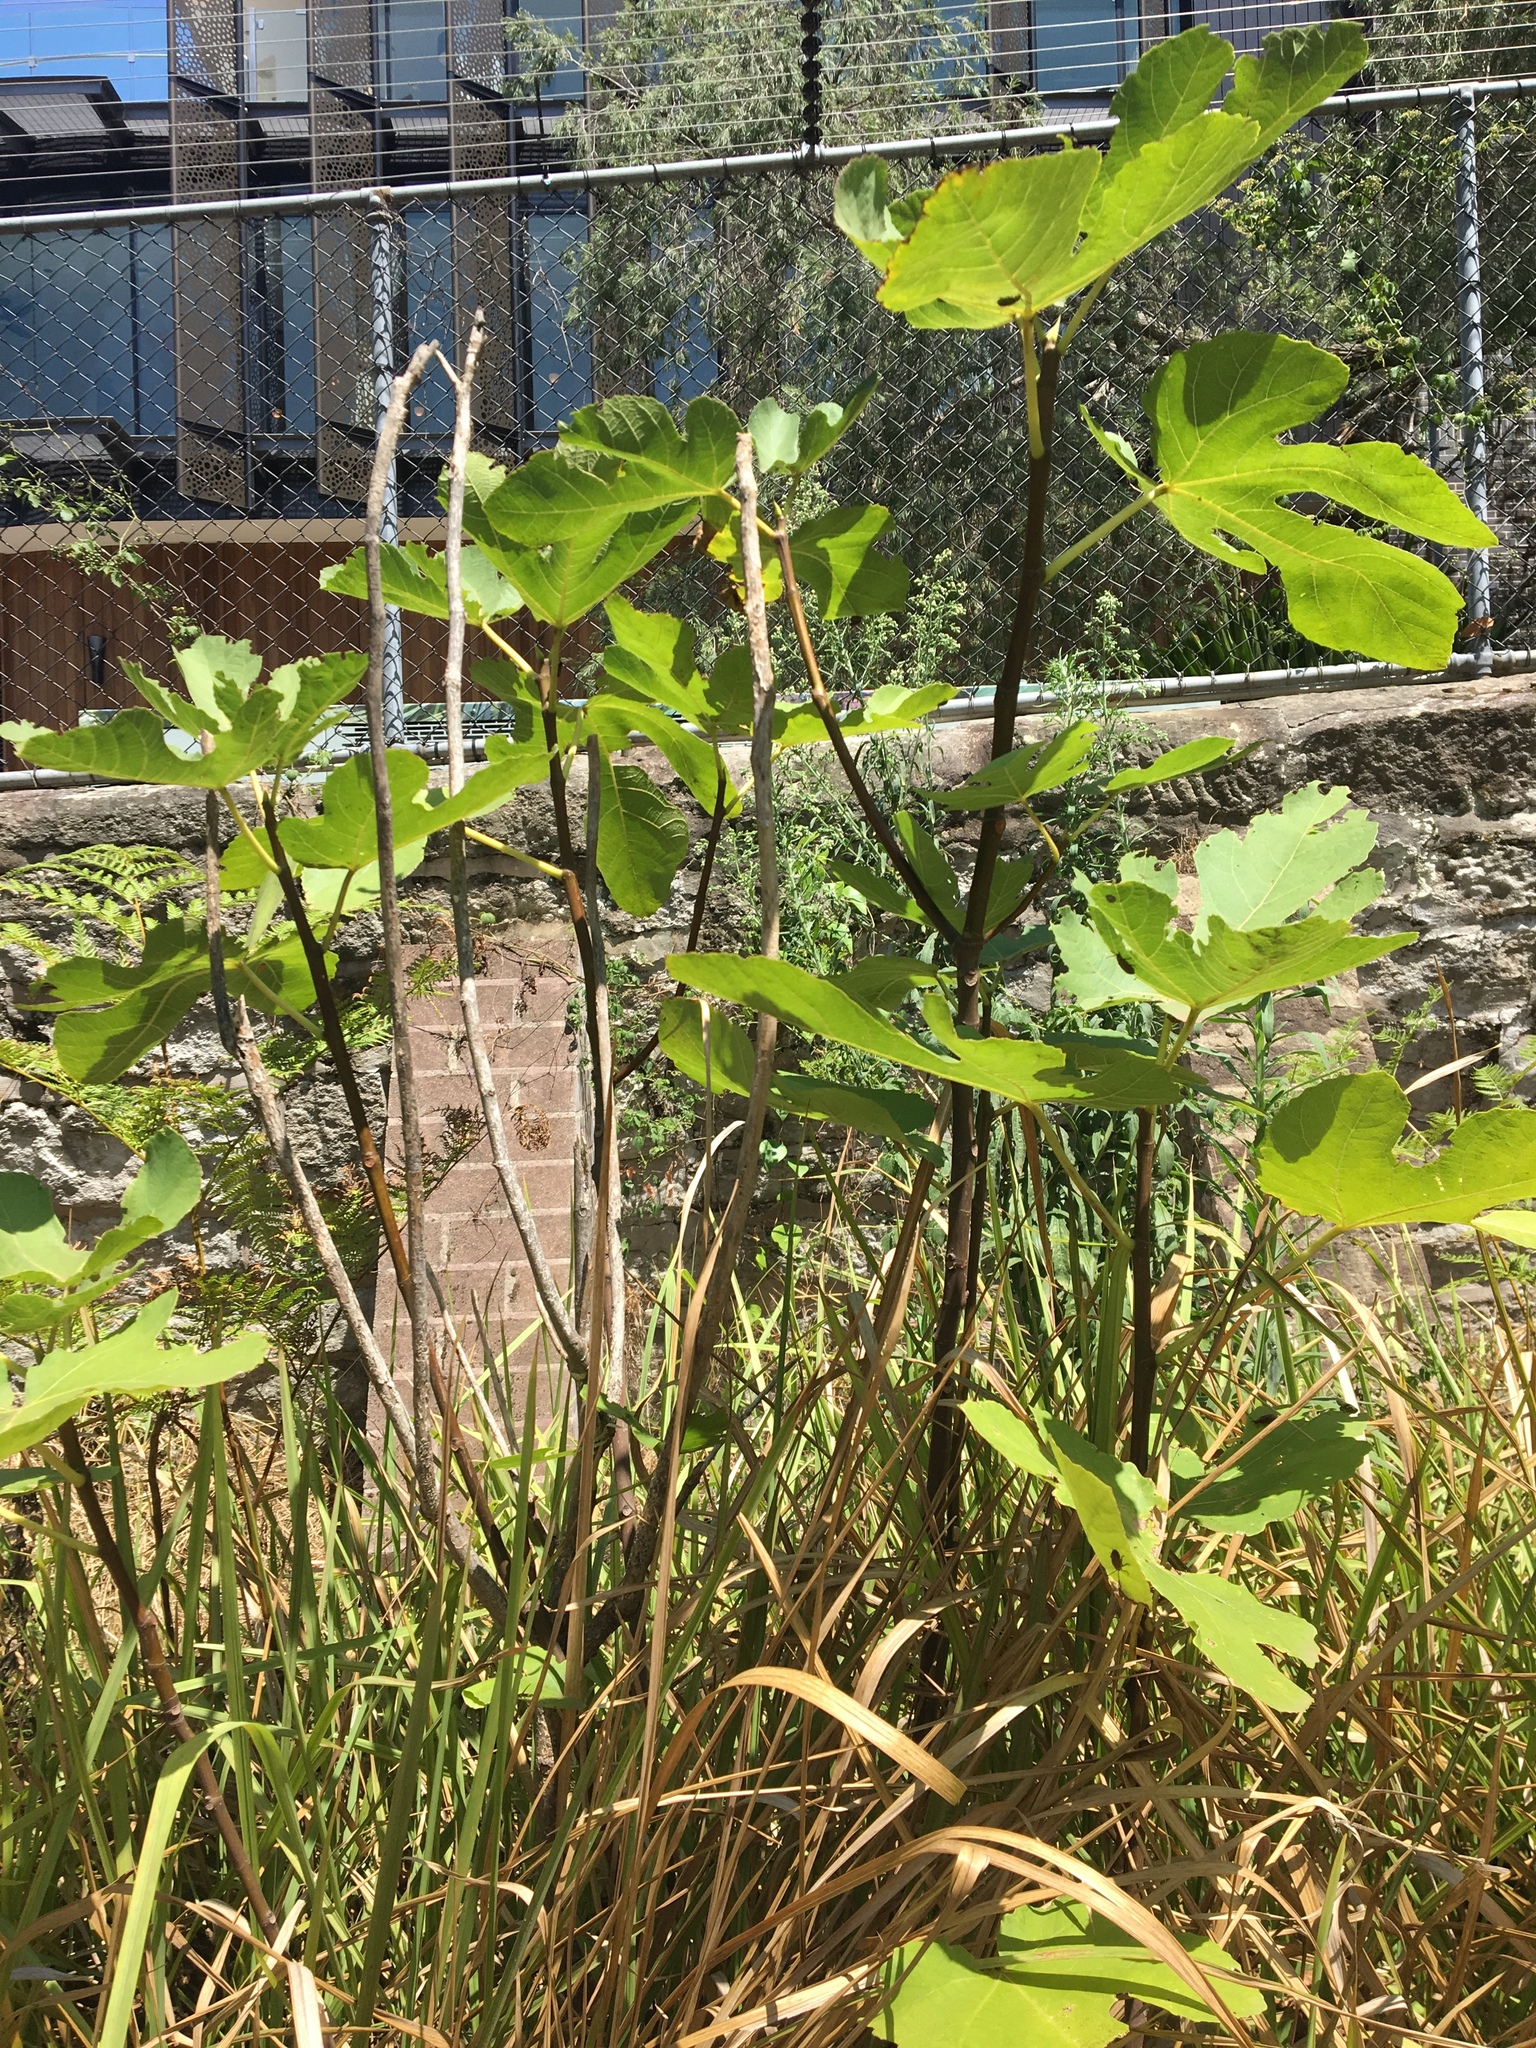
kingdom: Plantae
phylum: Tracheophyta
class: Magnoliopsida
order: Rosales
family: Moraceae
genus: Ficus
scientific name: Ficus carica
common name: Fig
